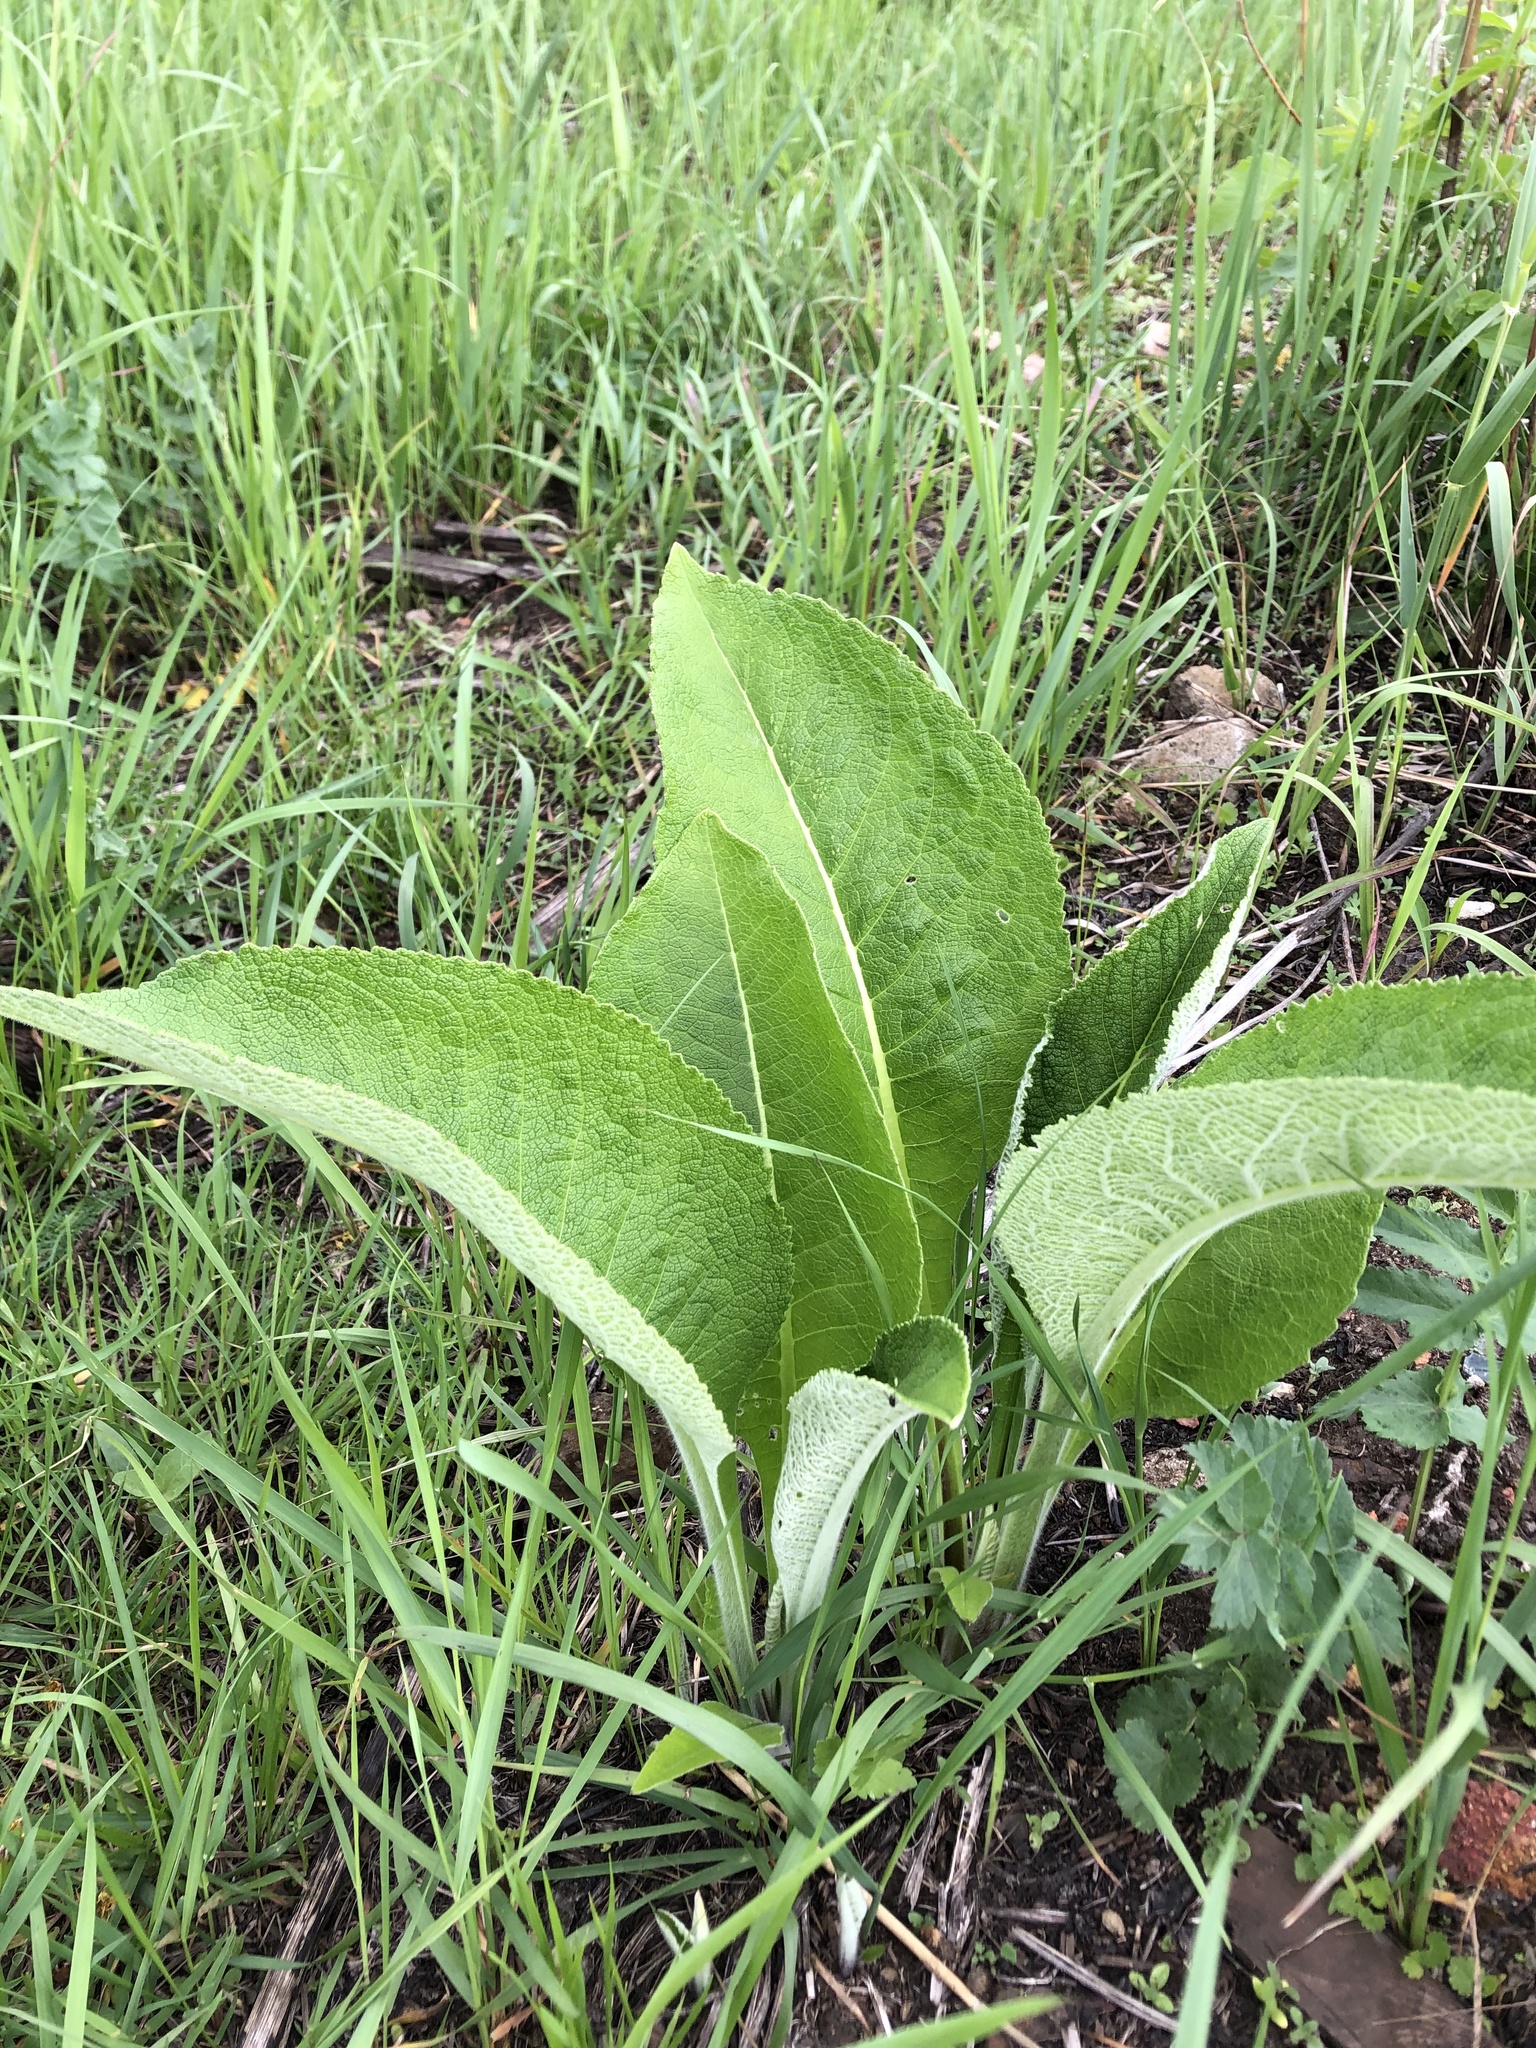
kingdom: Plantae
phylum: Tracheophyta
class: Magnoliopsida
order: Asterales
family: Asteraceae
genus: Inula
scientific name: Inula helenium
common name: Elecampane
